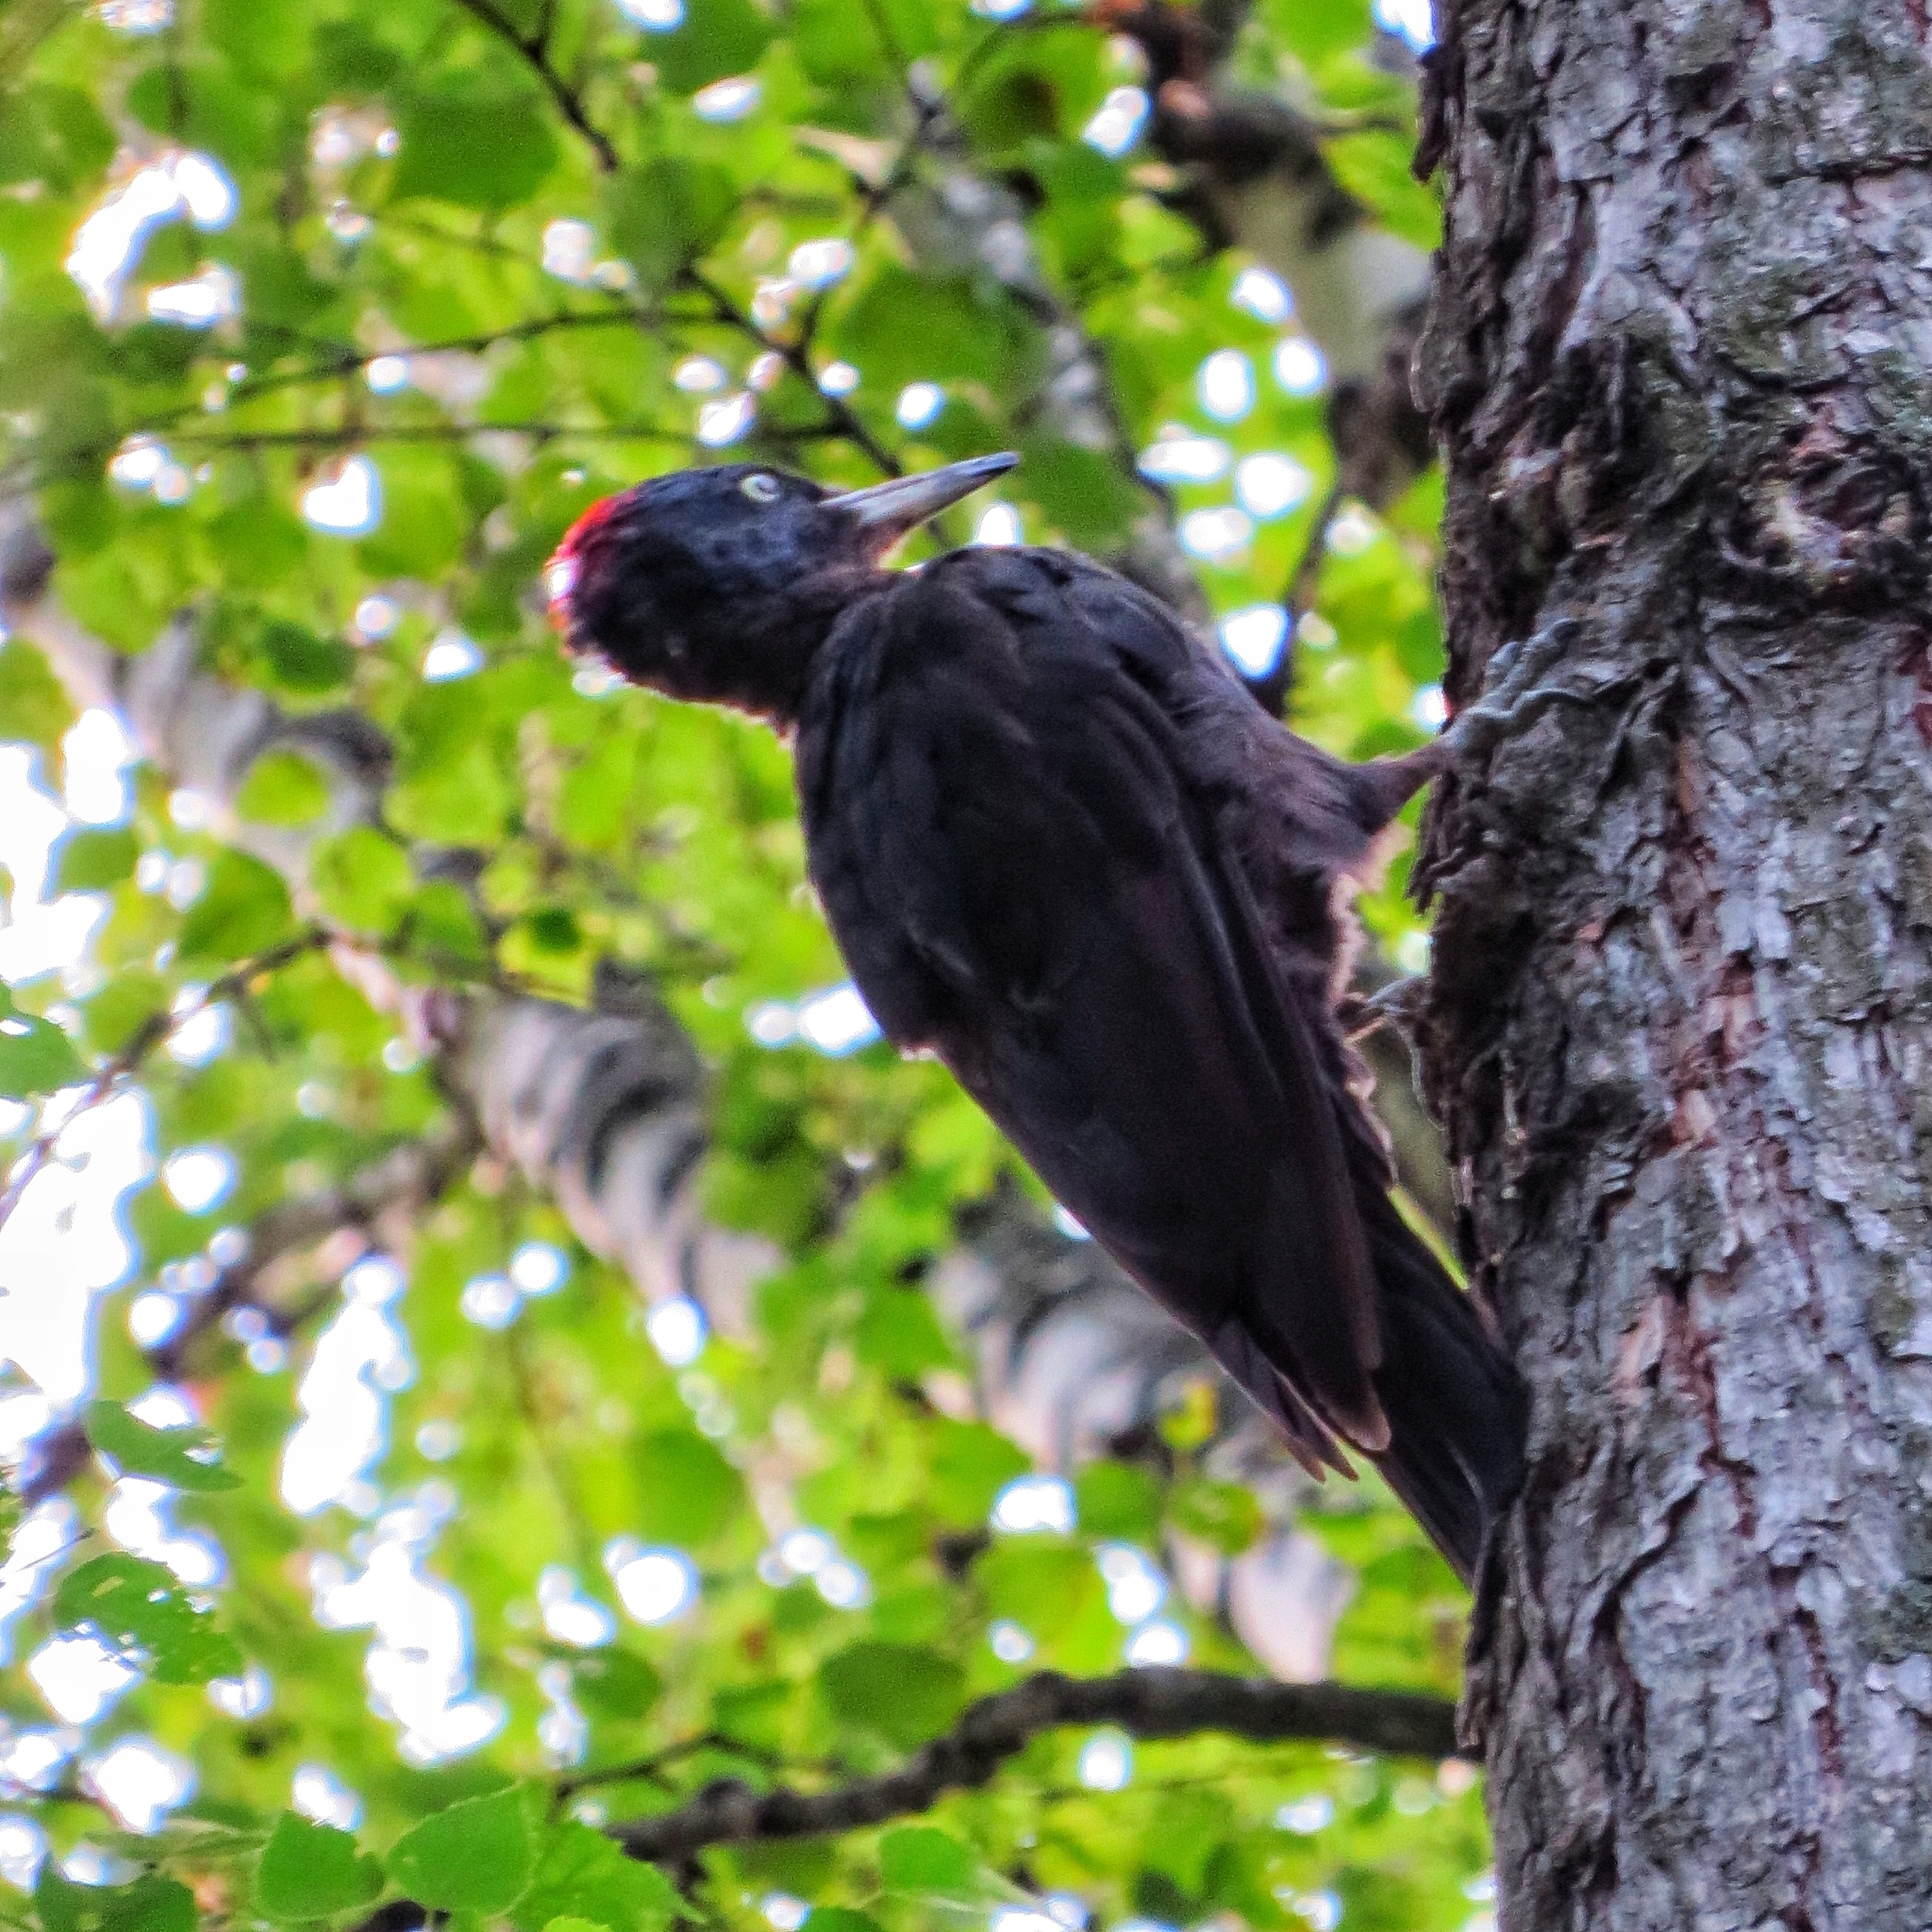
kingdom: Animalia
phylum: Chordata
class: Aves
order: Piciformes
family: Picidae
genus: Dryocopus
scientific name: Dryocopus martius
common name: Black woodpecker
